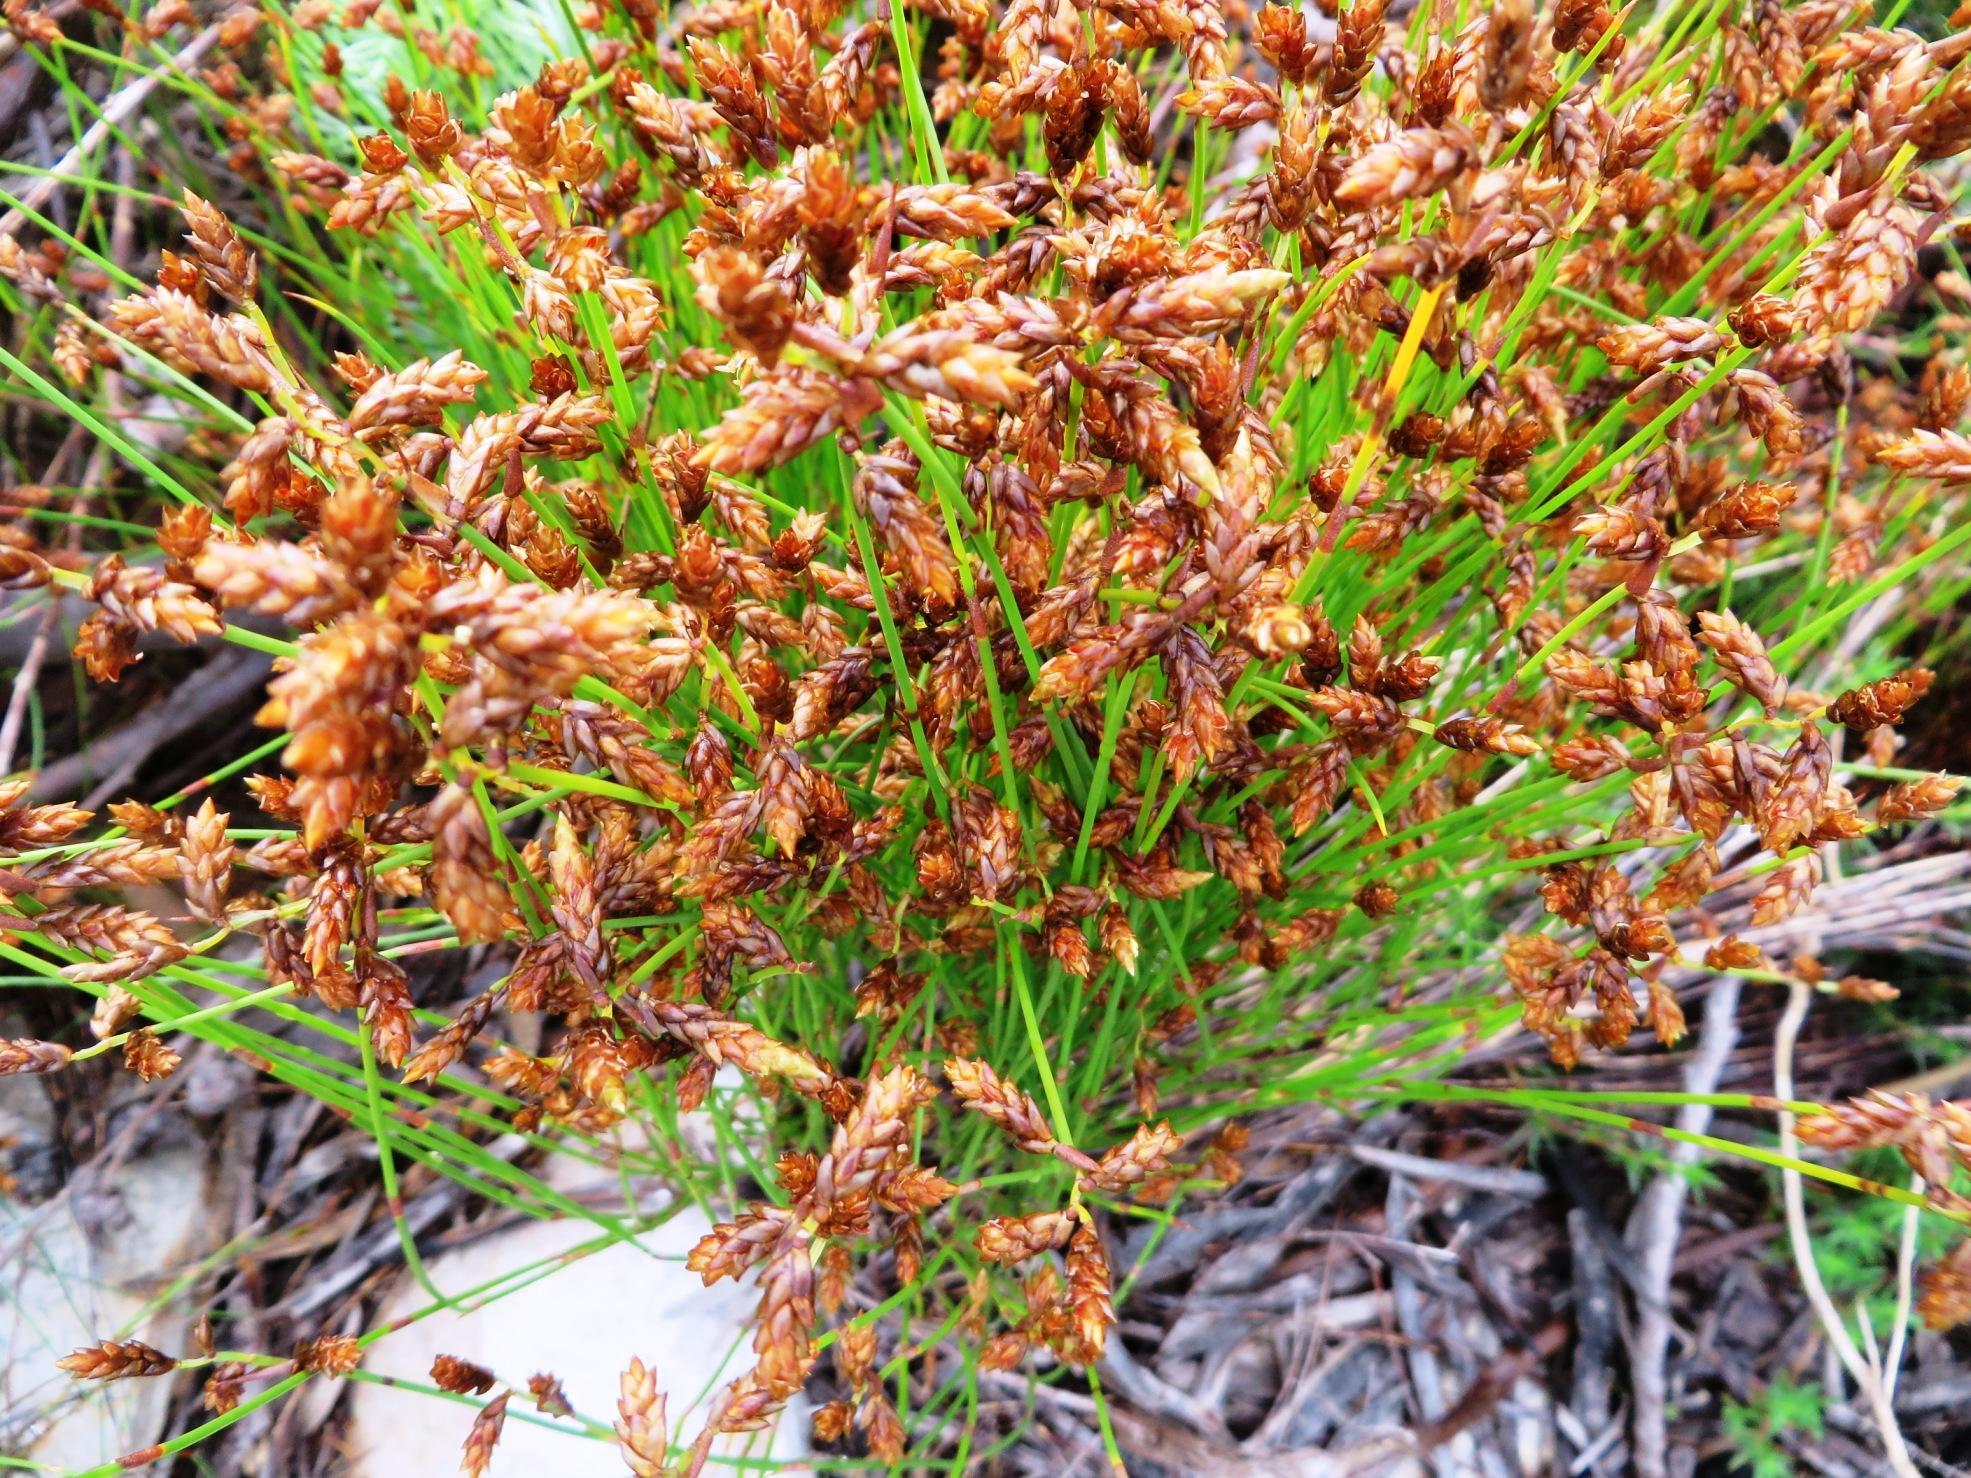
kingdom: Plantae
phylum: Tracheophyta
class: Liliopsida
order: Poales
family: Restionaceae
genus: Mastersiella
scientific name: Mastersiella digitata
